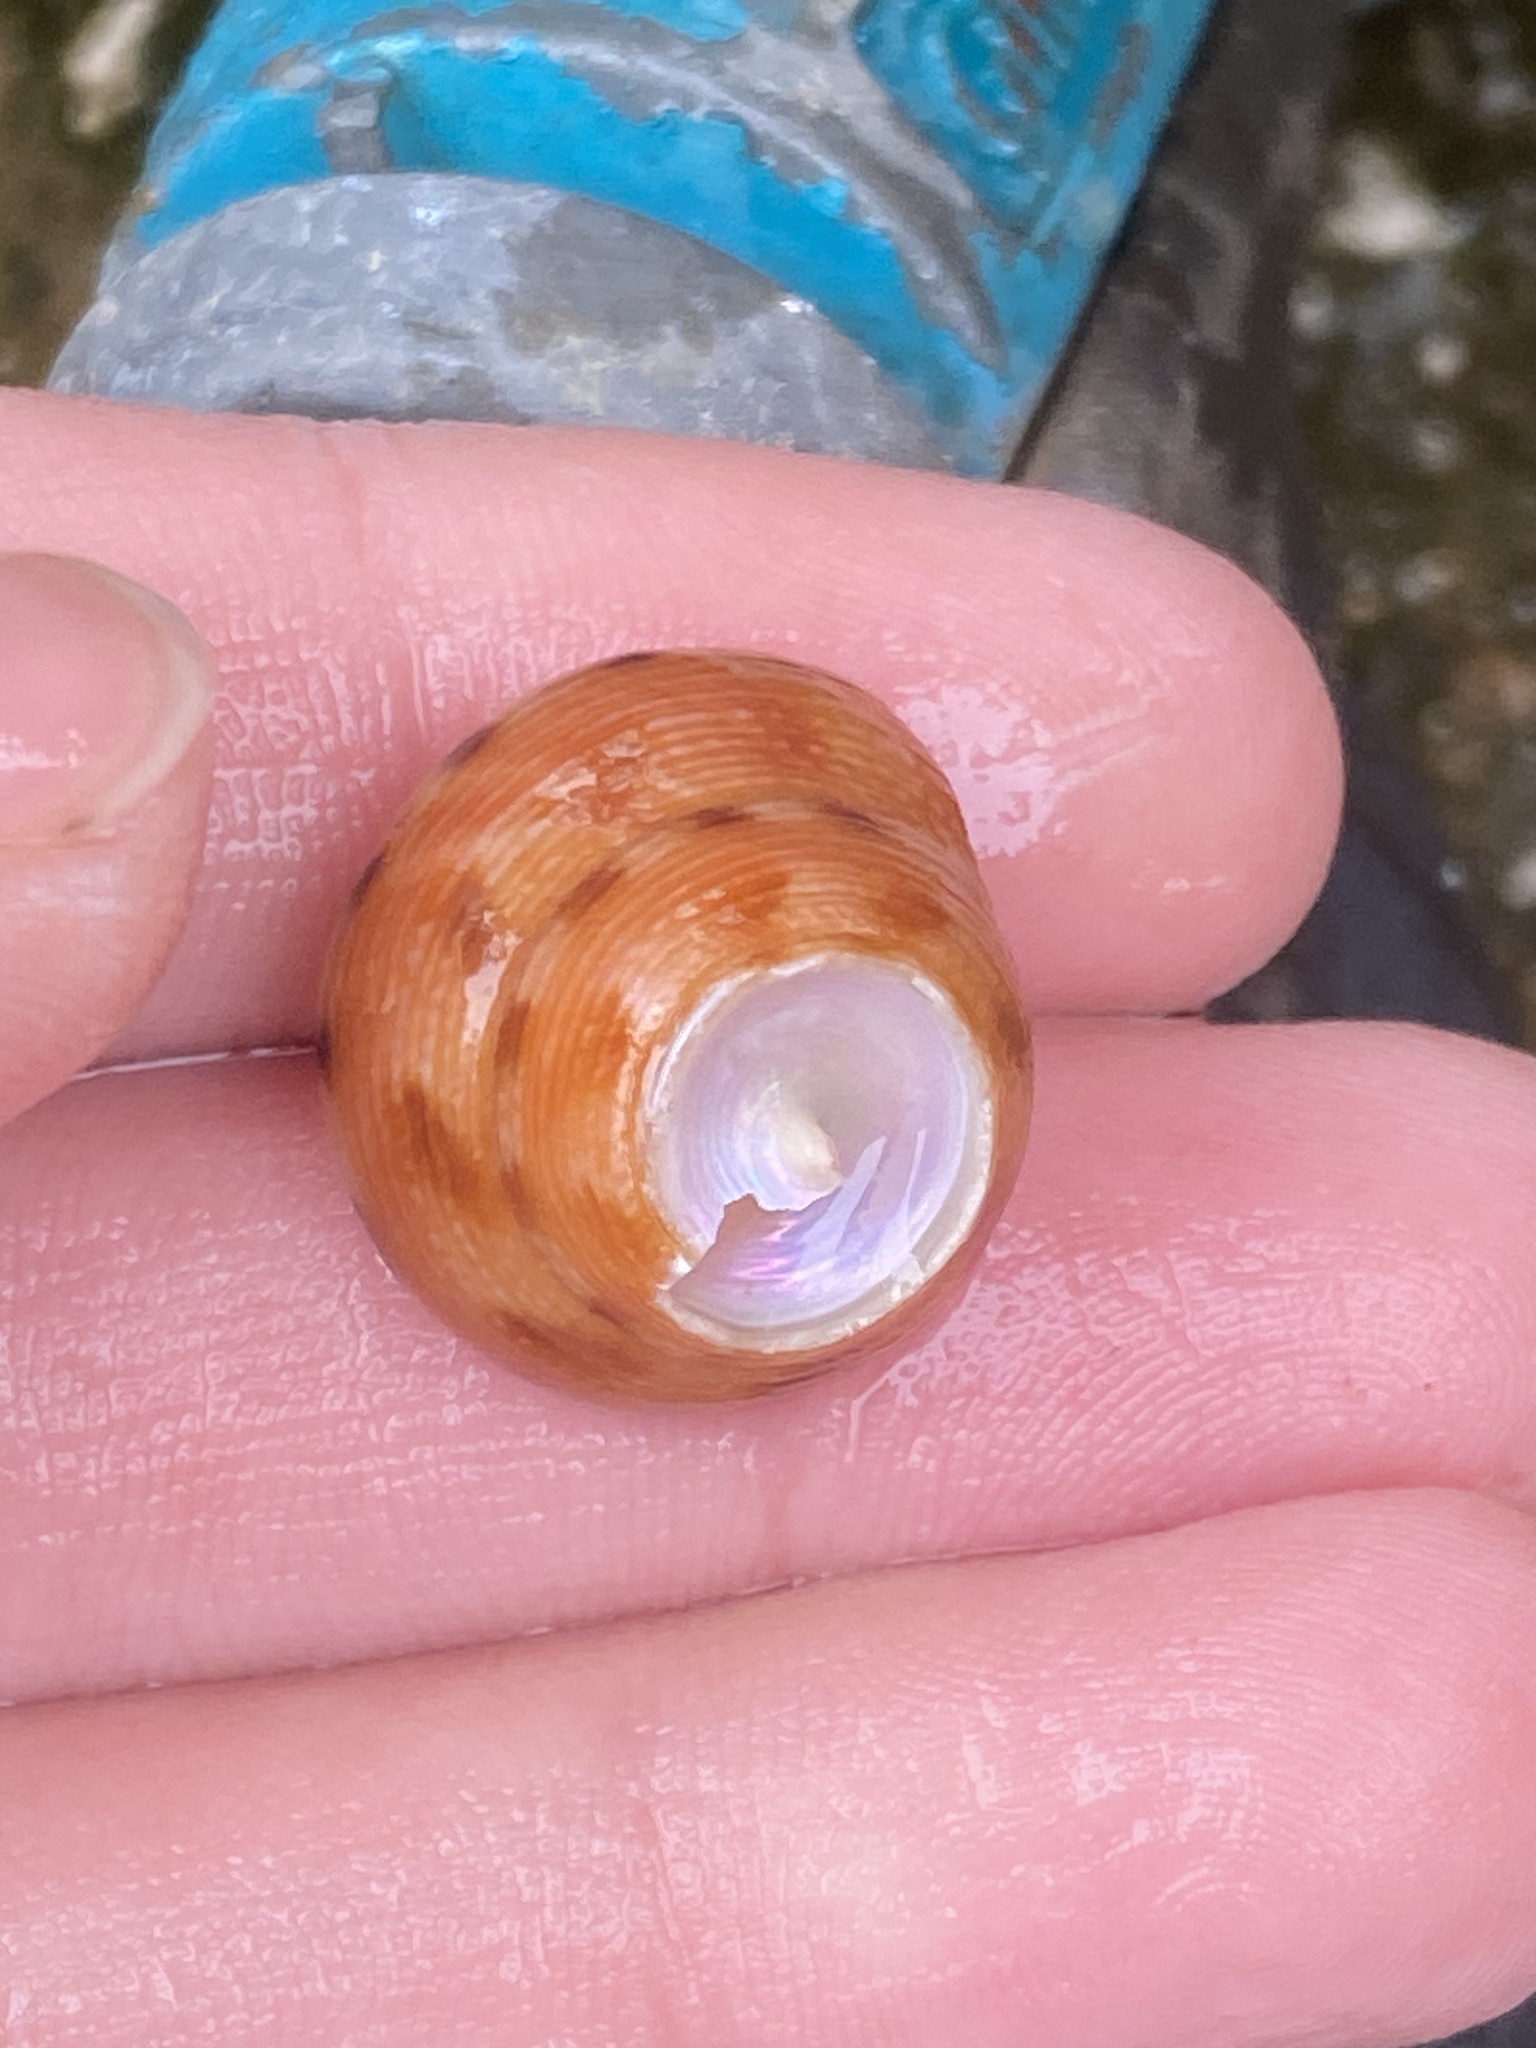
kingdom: Animalia
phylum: Mollusca
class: Gastropoda
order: Trochida
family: Calliostomatidae
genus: Calliostoma
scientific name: Calliostoma gloriosum
